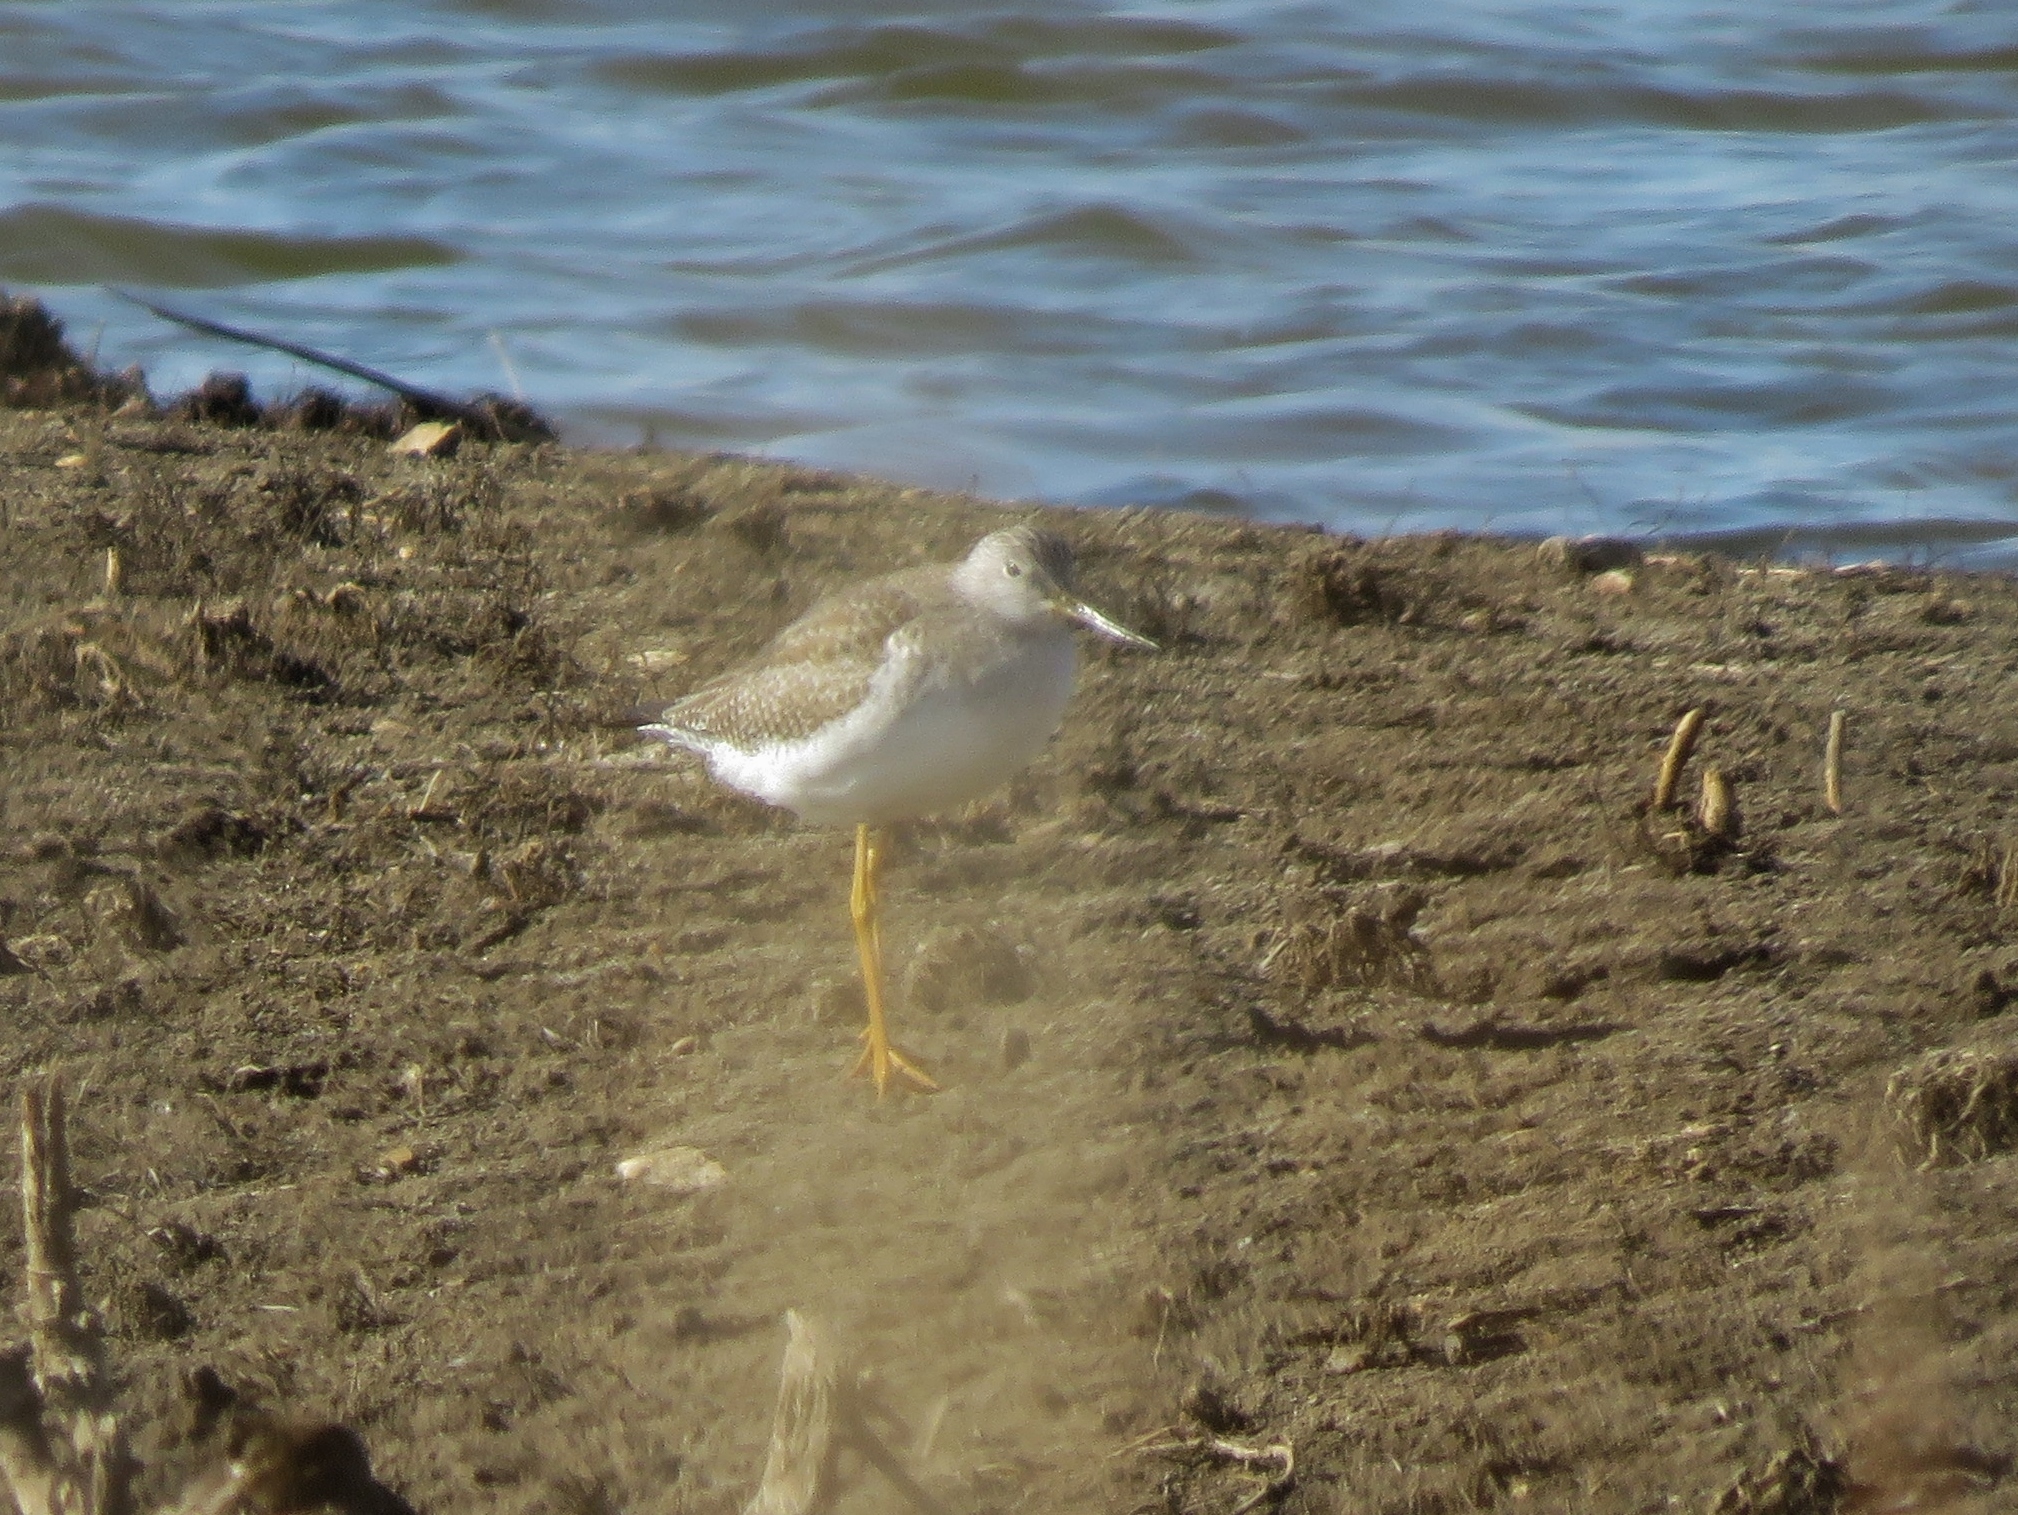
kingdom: Animalia
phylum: Chordata
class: Aves
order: Charadriiformes
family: Scolopacidae
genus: Tringa
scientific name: Tringa melanoleuca
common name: Greater yellowlegs
